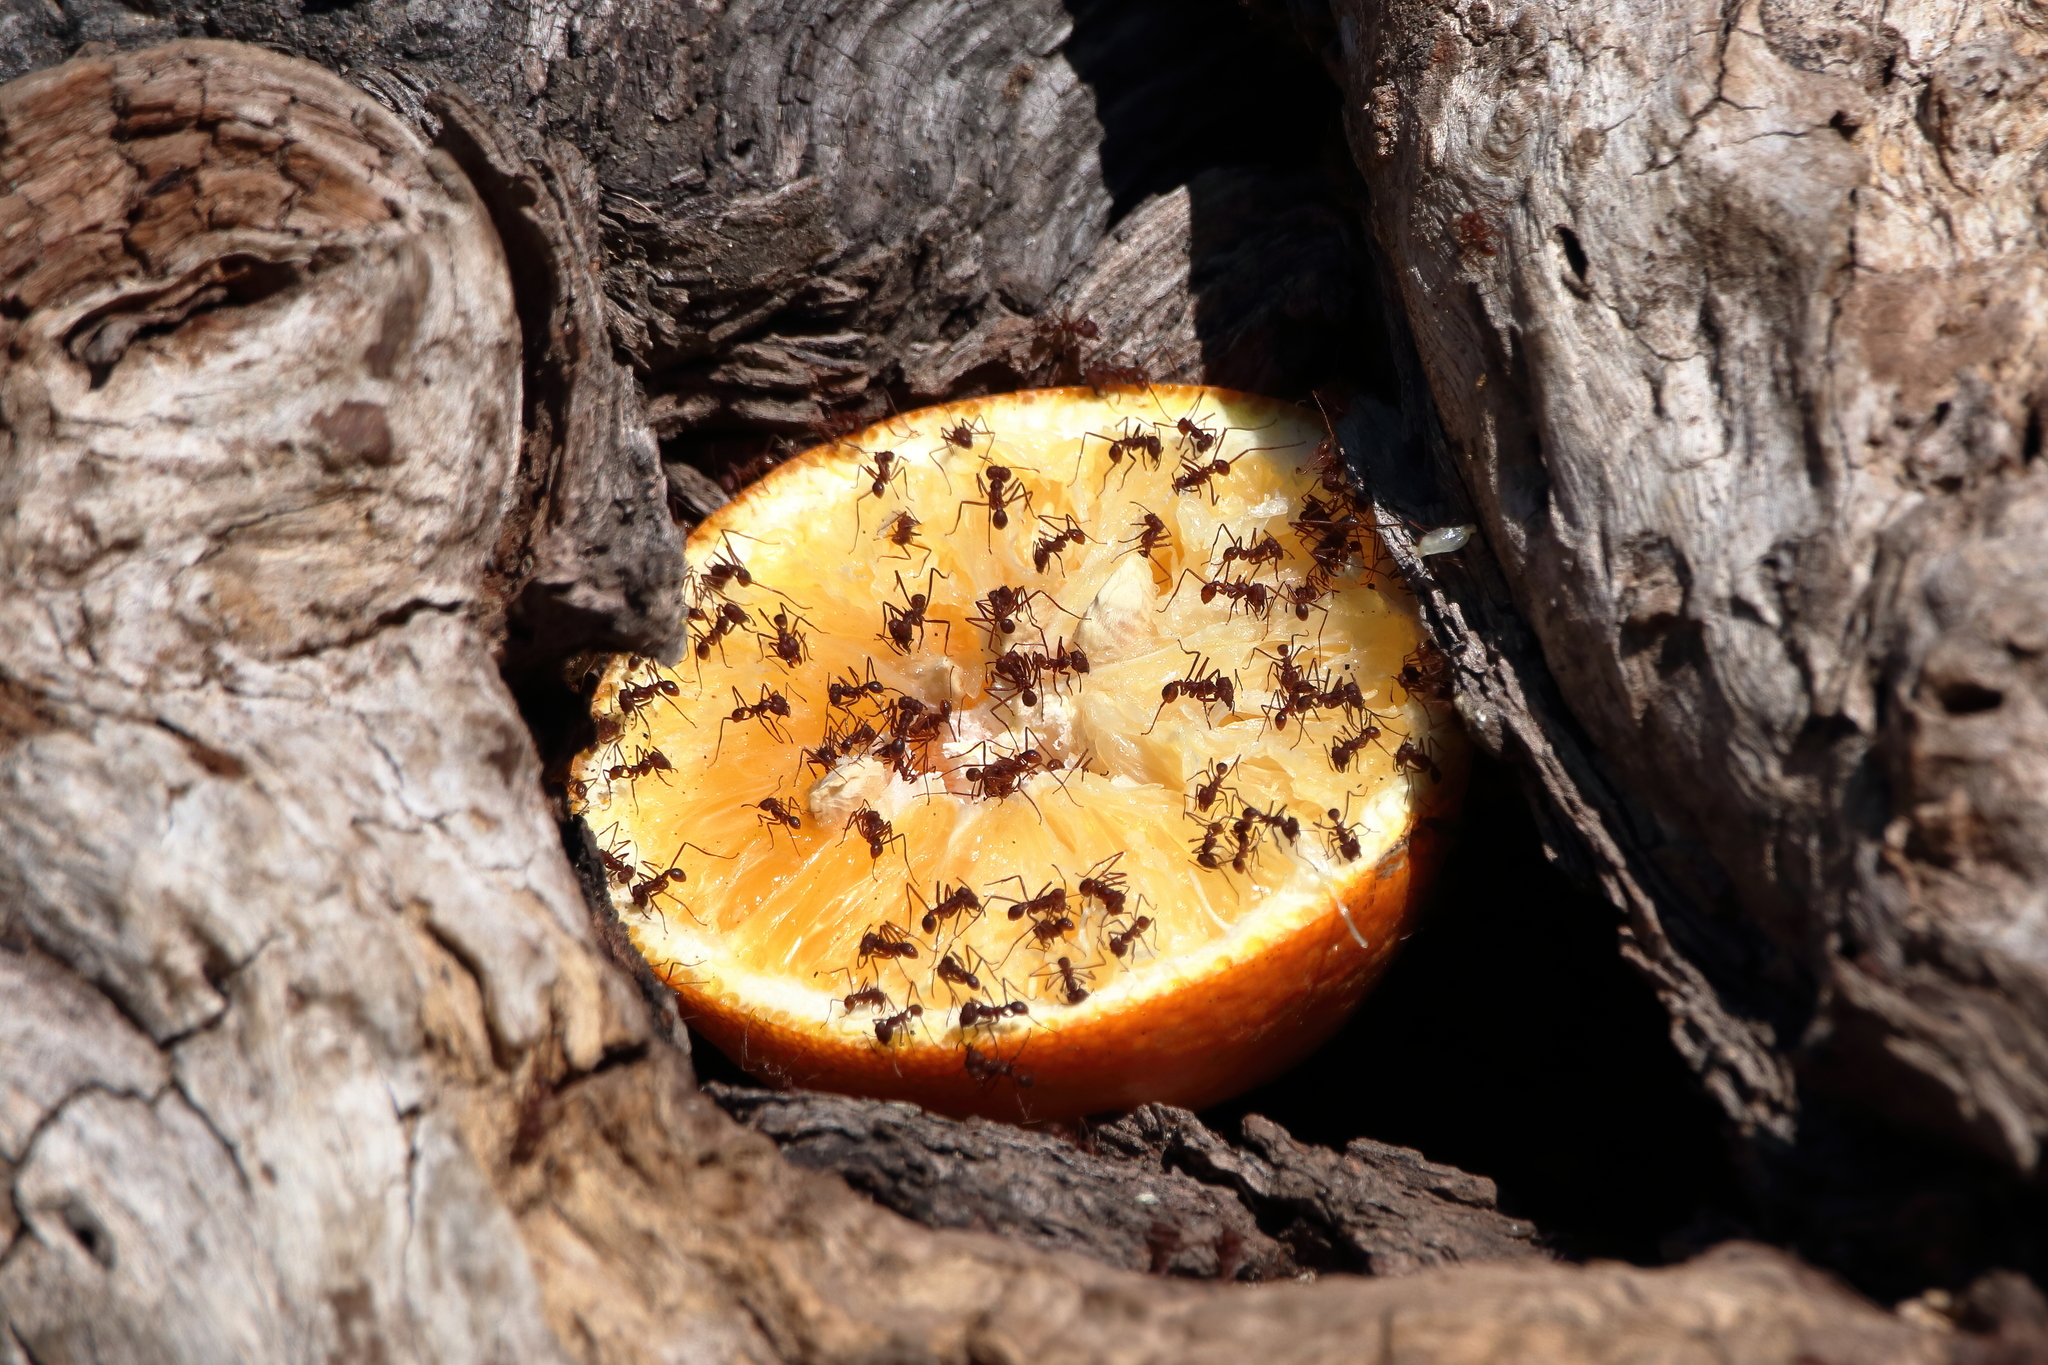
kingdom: Animalia
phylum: Arthropoda
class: Insecta
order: Hymenoptera
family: Formicidae
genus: Atta
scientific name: Atta texana
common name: Texas leafcutting ant
